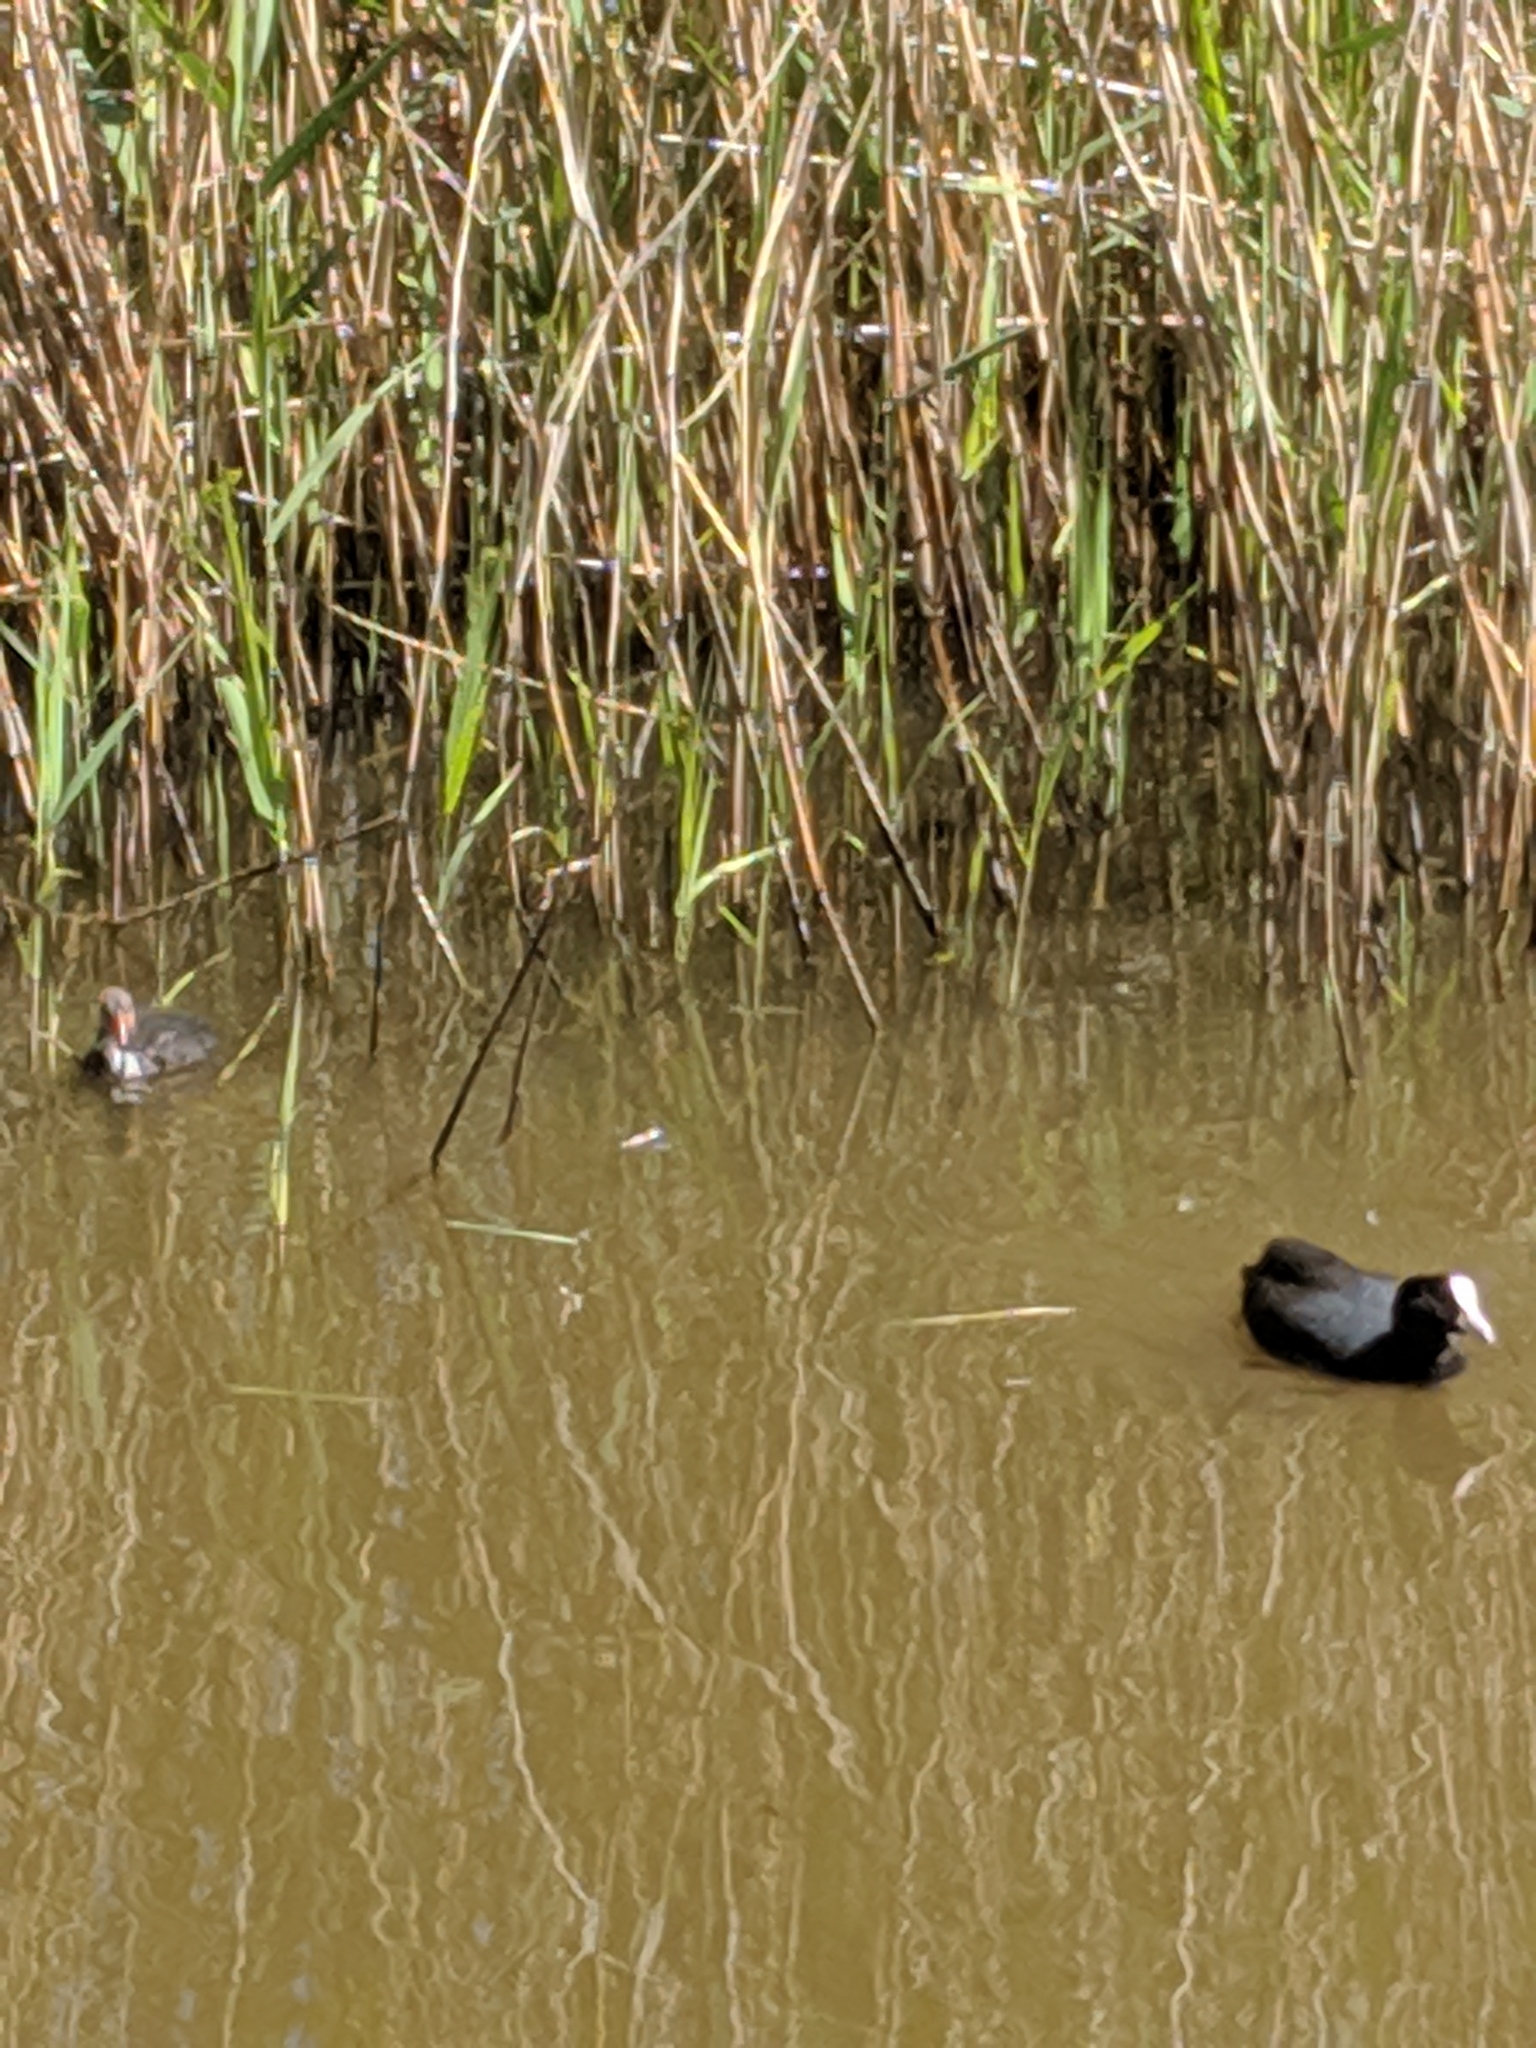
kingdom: Animalia
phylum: Chordata
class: Aves
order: Gruiformes
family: Rallidae
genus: Fulica
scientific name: Fulica atra
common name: Eurasian coot
